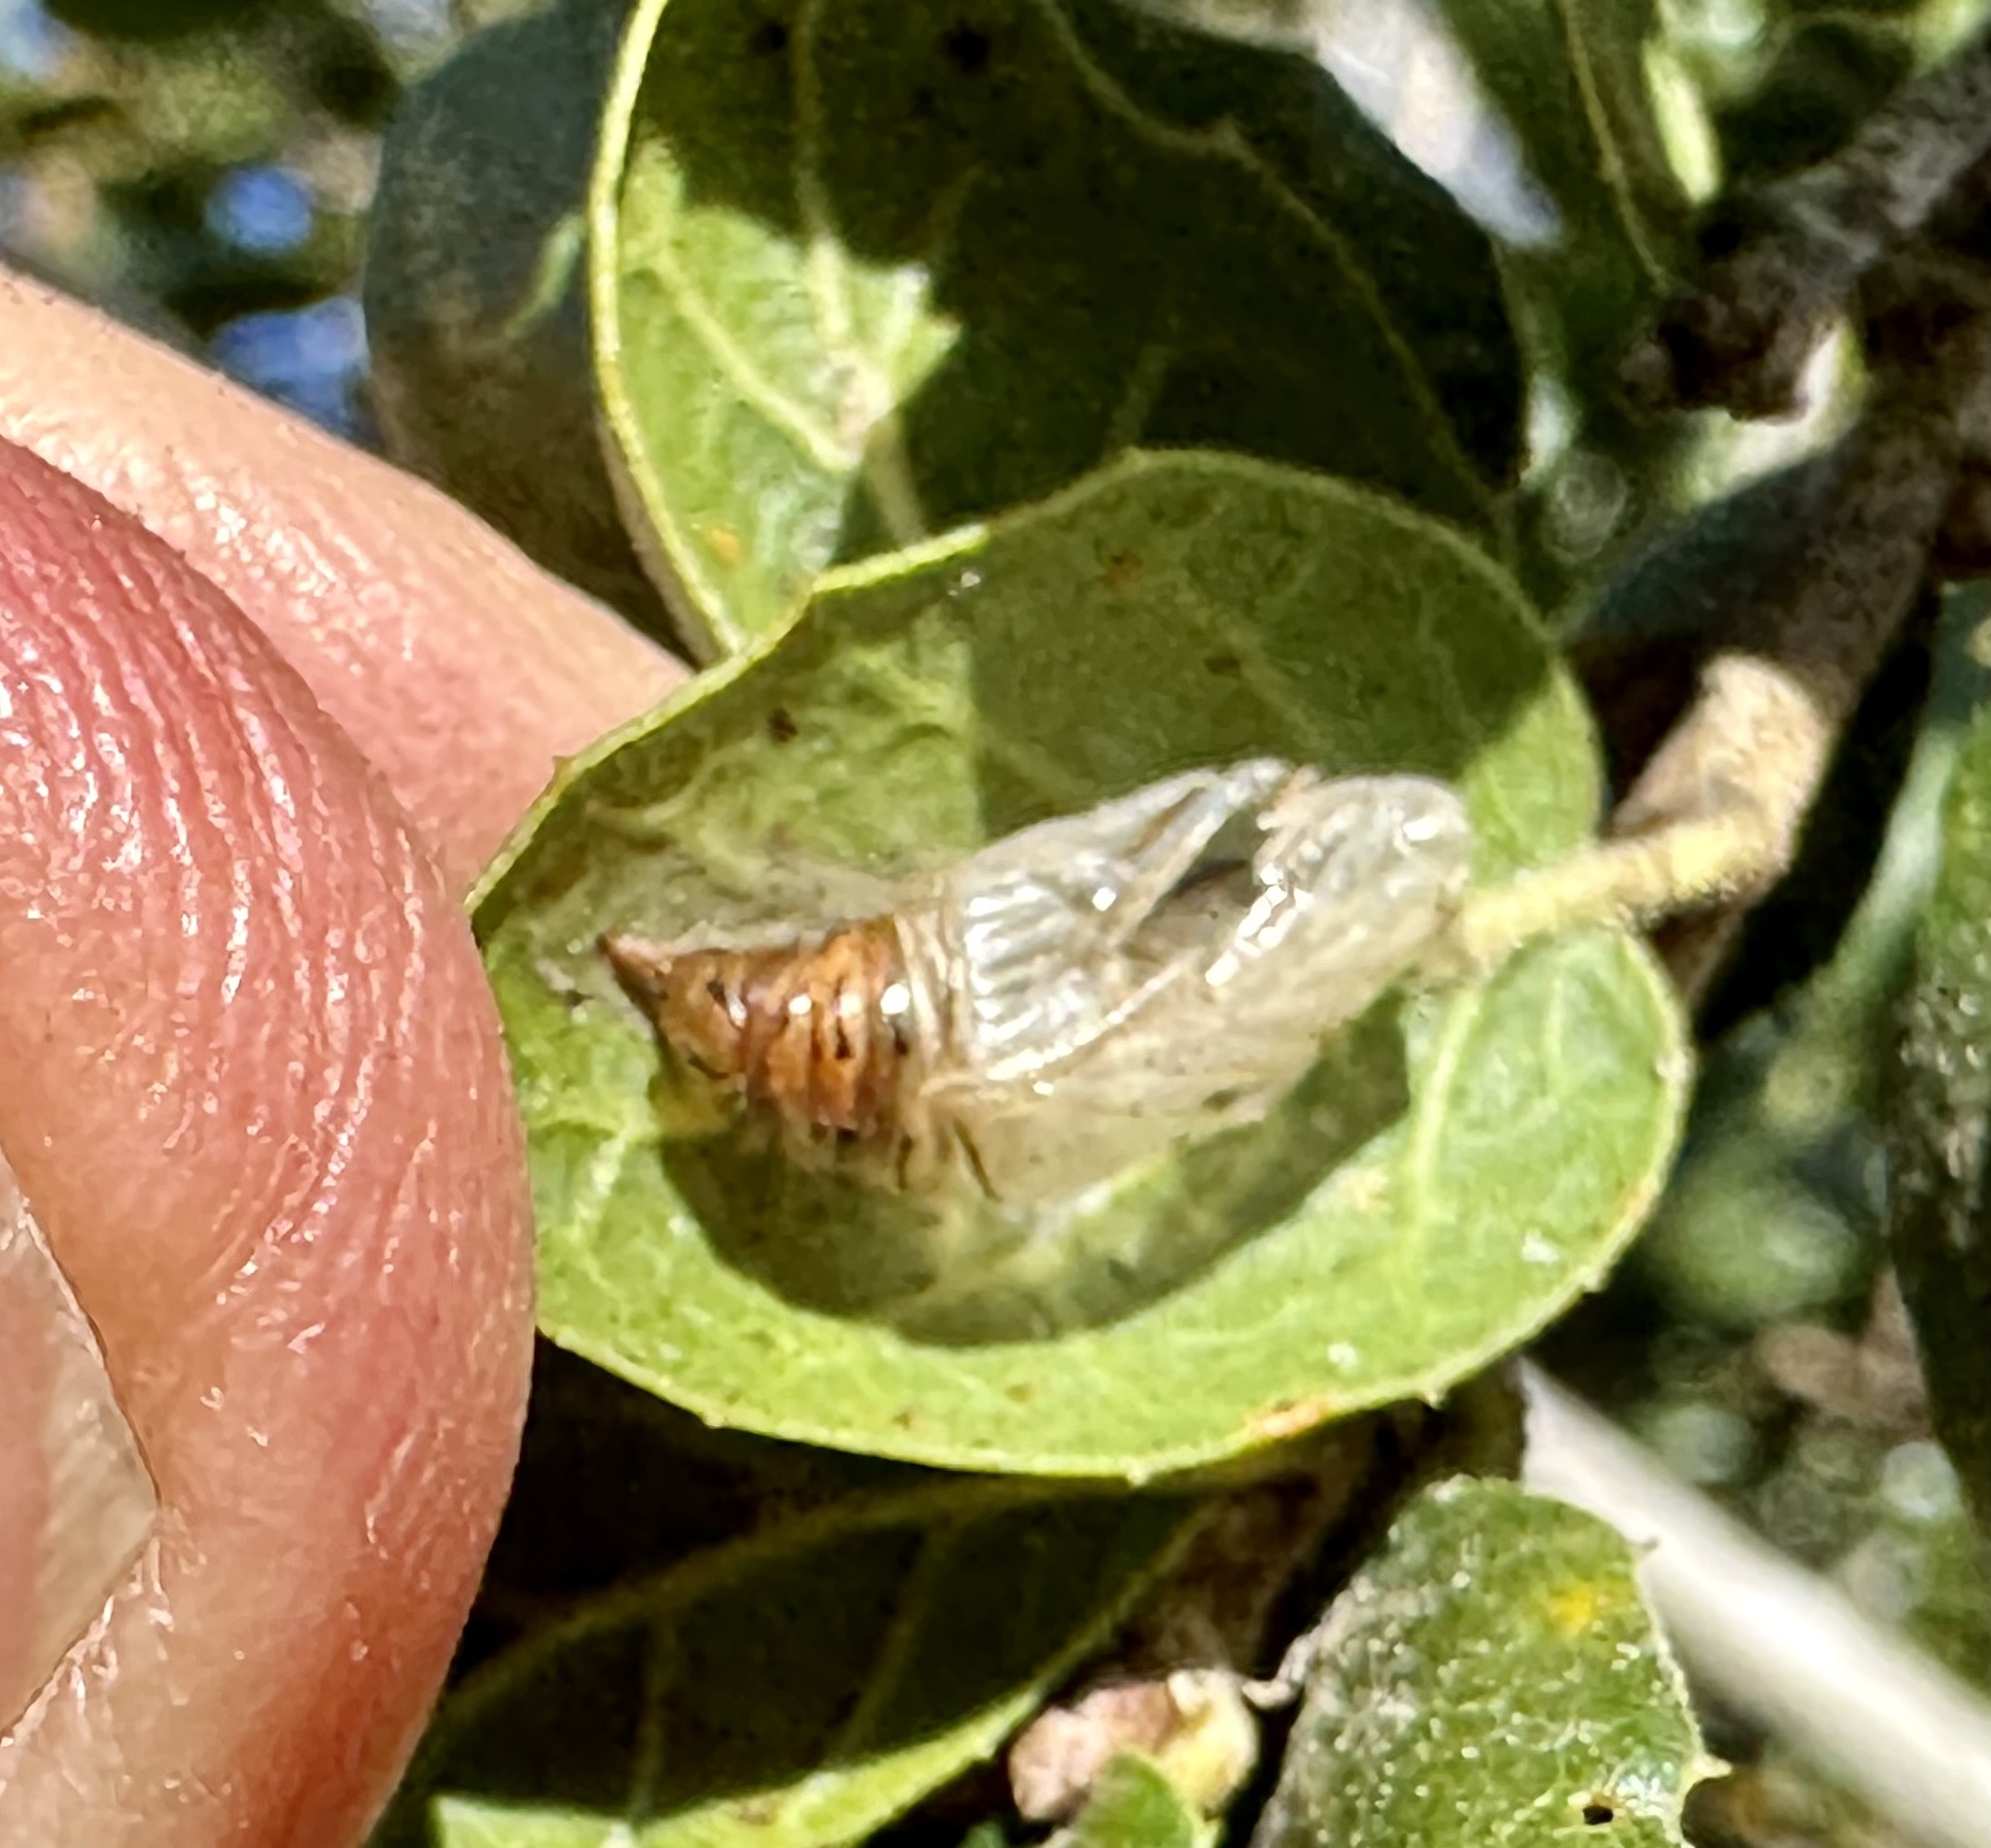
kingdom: Animalia
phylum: Arthropoda
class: Insecta
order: Lepidoptera
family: Notodontidae
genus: Phryganidia
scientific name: Phryganidia californica
